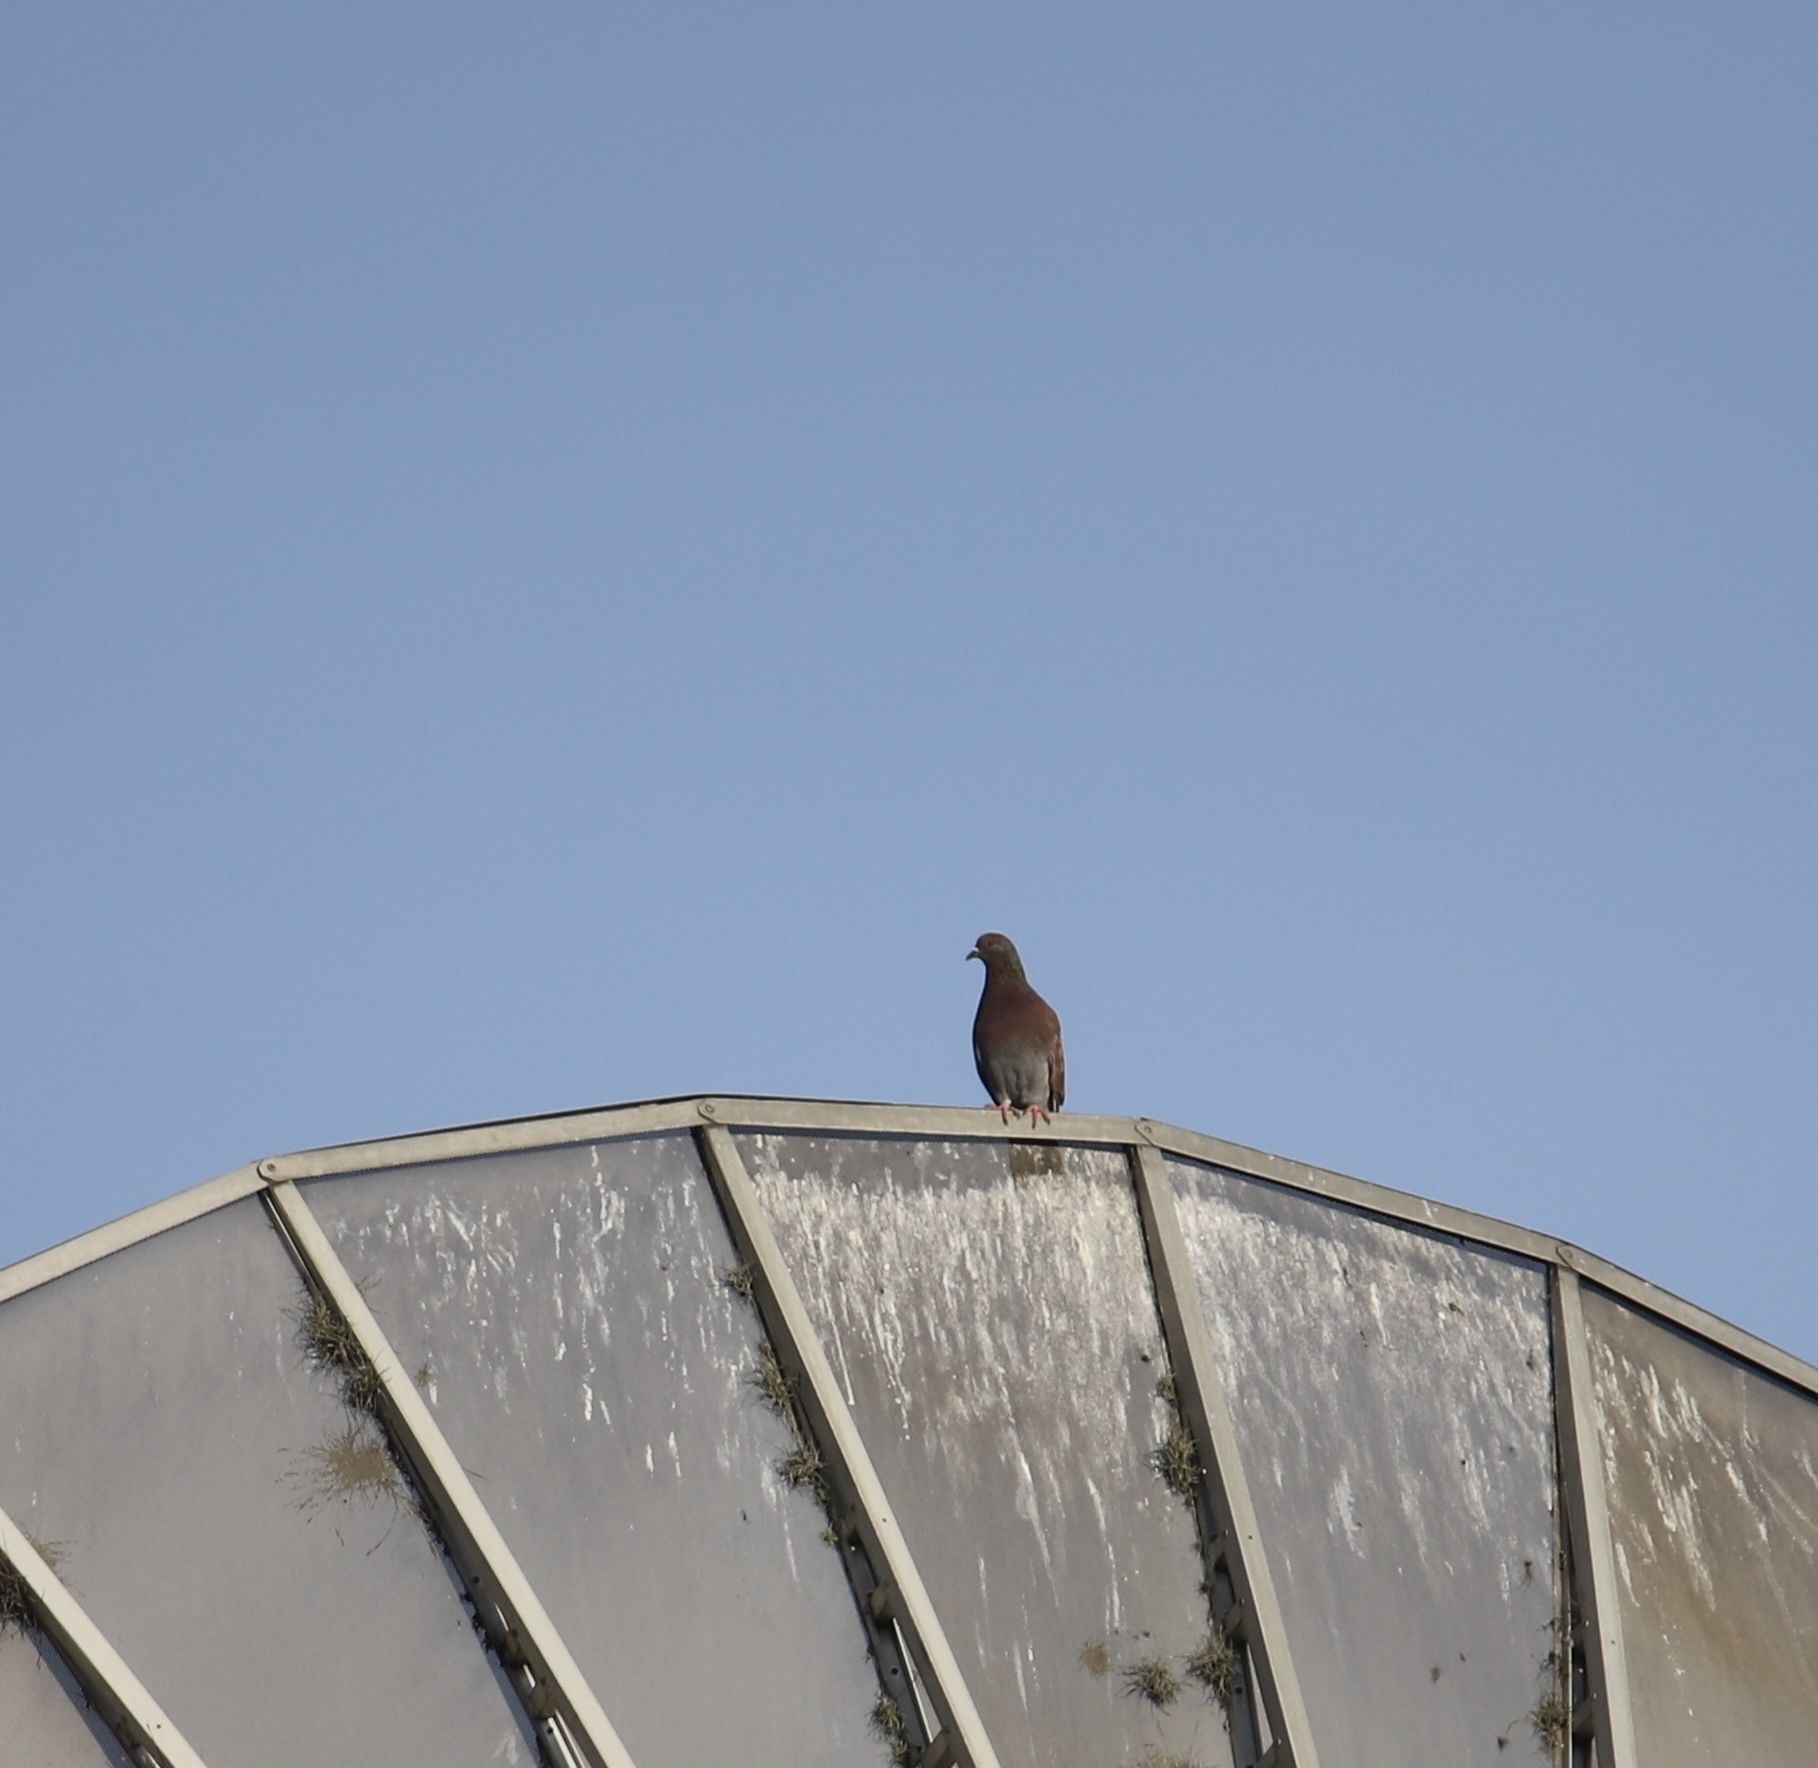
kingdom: Animalia
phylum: Chordata
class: Aves
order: Columbiformes
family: Columbidae
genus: Patagioenas
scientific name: Patagioenas cayennensis
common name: Pale-vented pigeon
